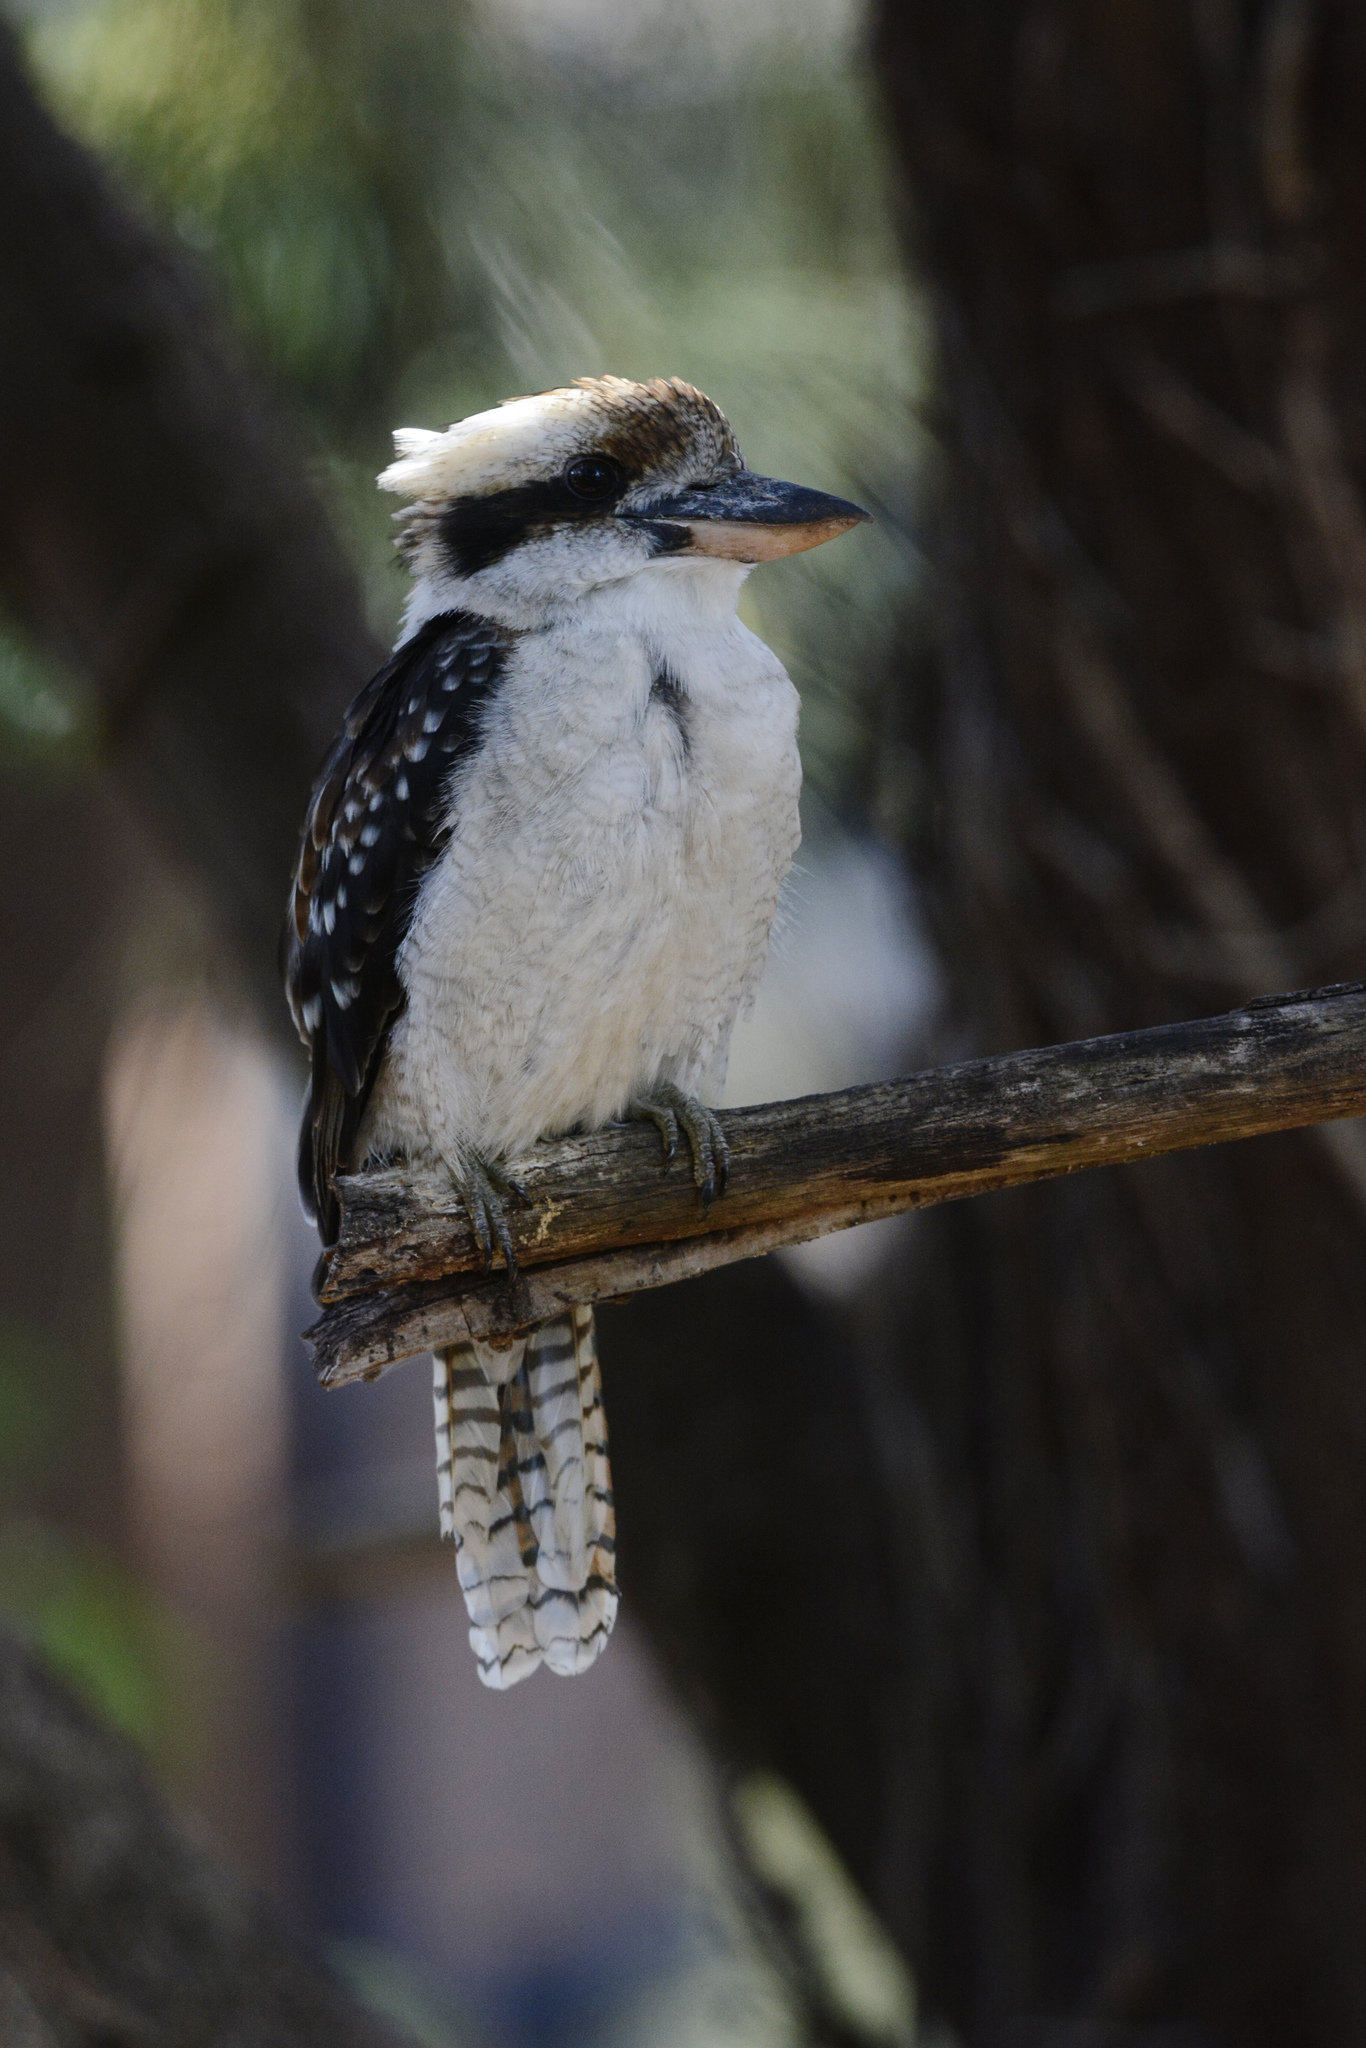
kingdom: Animalia
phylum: Chordata
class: Aves
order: Coraciiformes
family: Alcedinidae
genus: Dacelo
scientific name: Dacelo novaeguineae
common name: Laughing kookaburra
